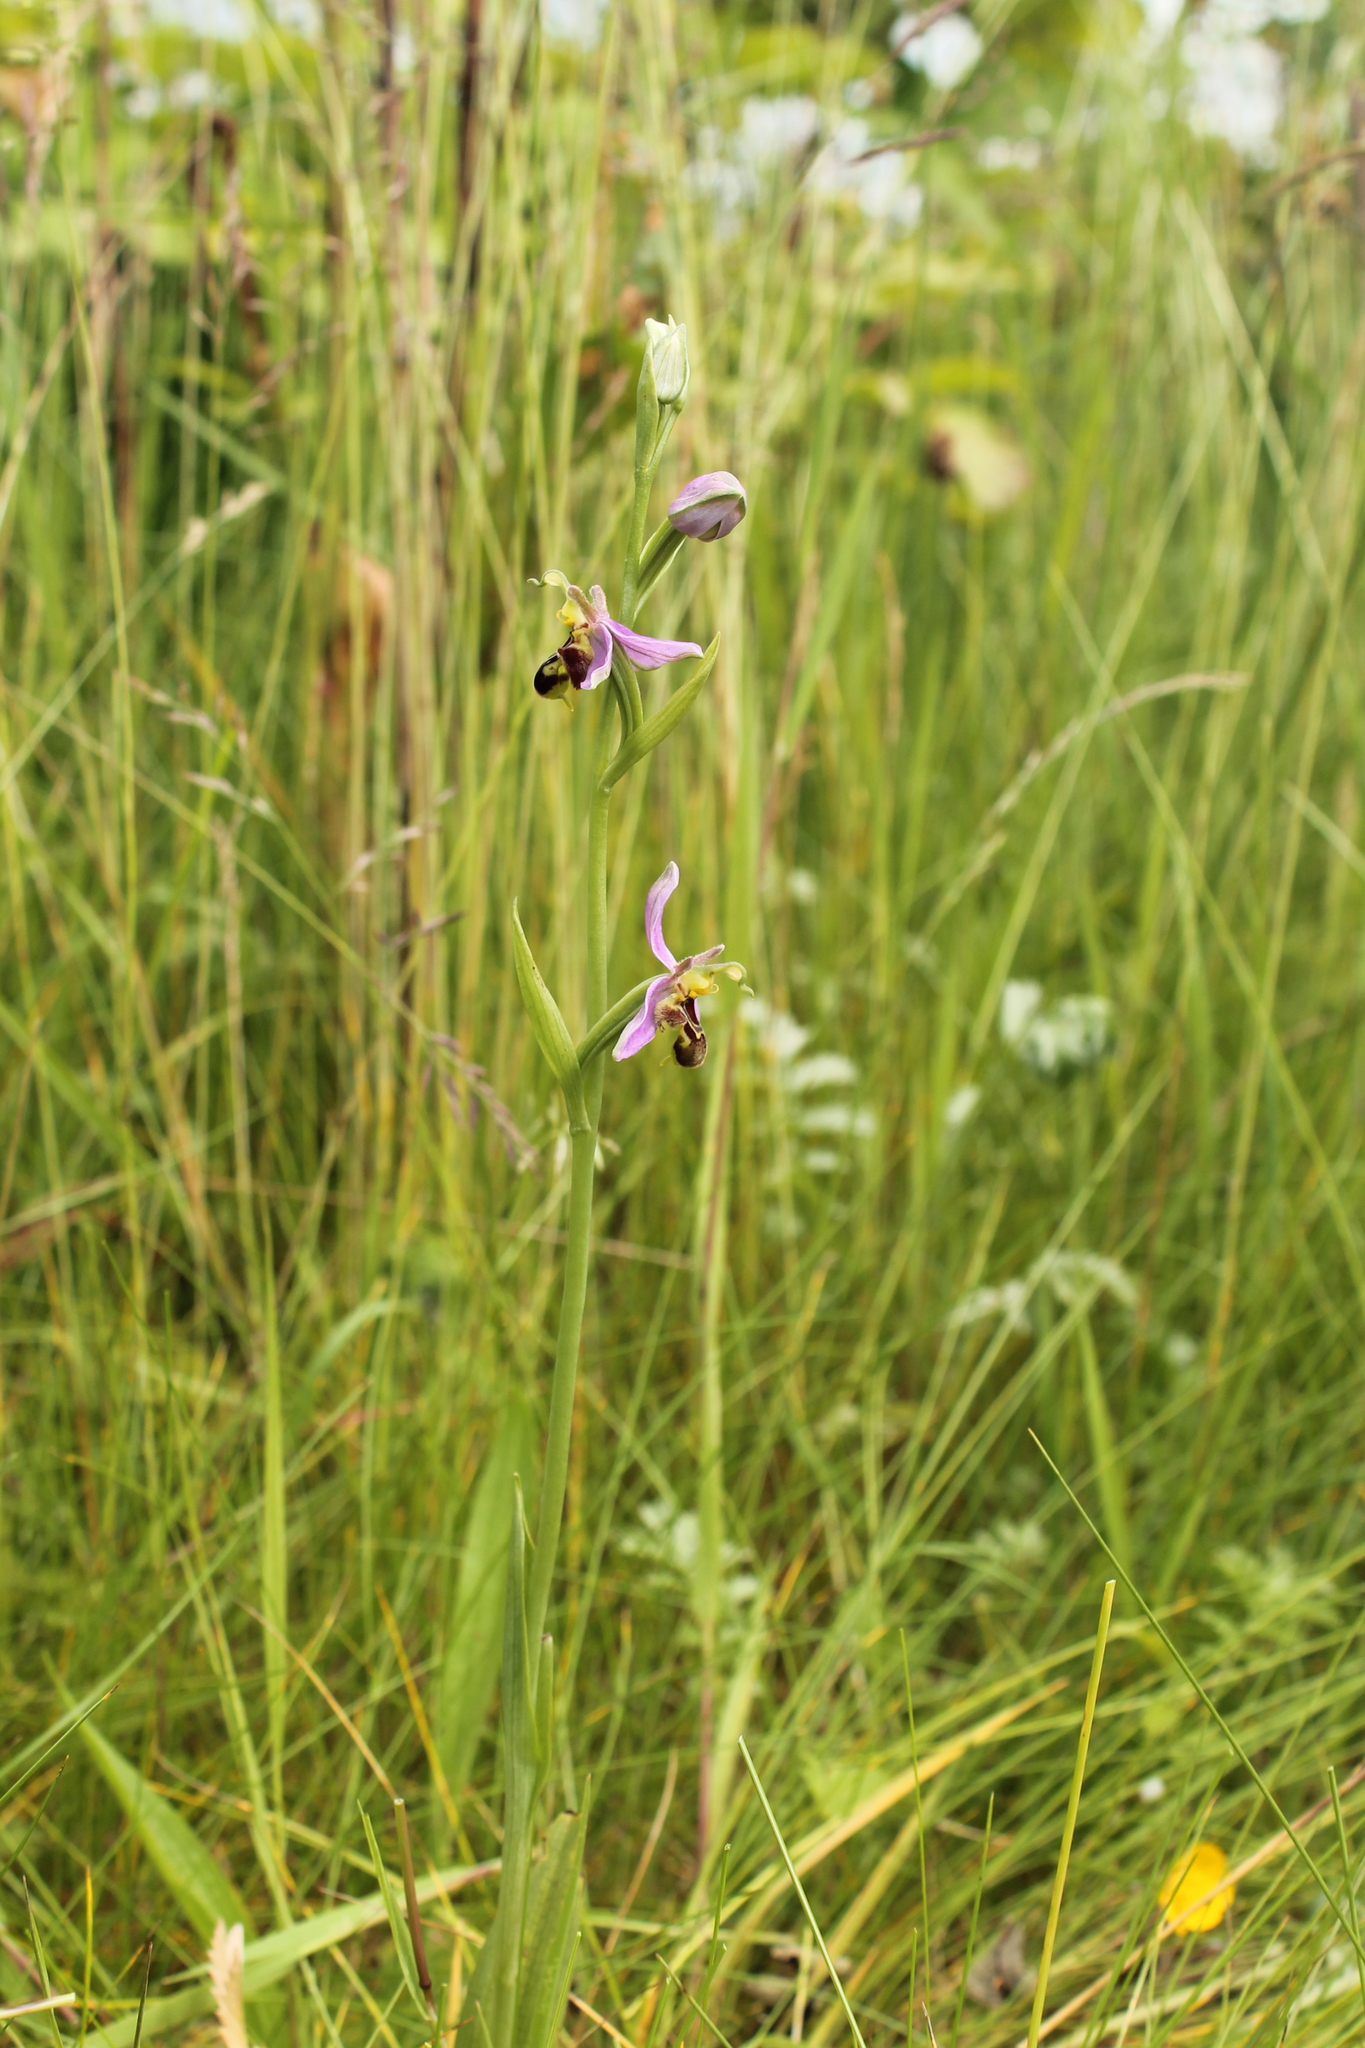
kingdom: Plantae
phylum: Tracheophyta
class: Liliopsida
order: Asparagales
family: Orchidaceae
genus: Ophrys
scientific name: Ophrys apifera
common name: Bee orchid
